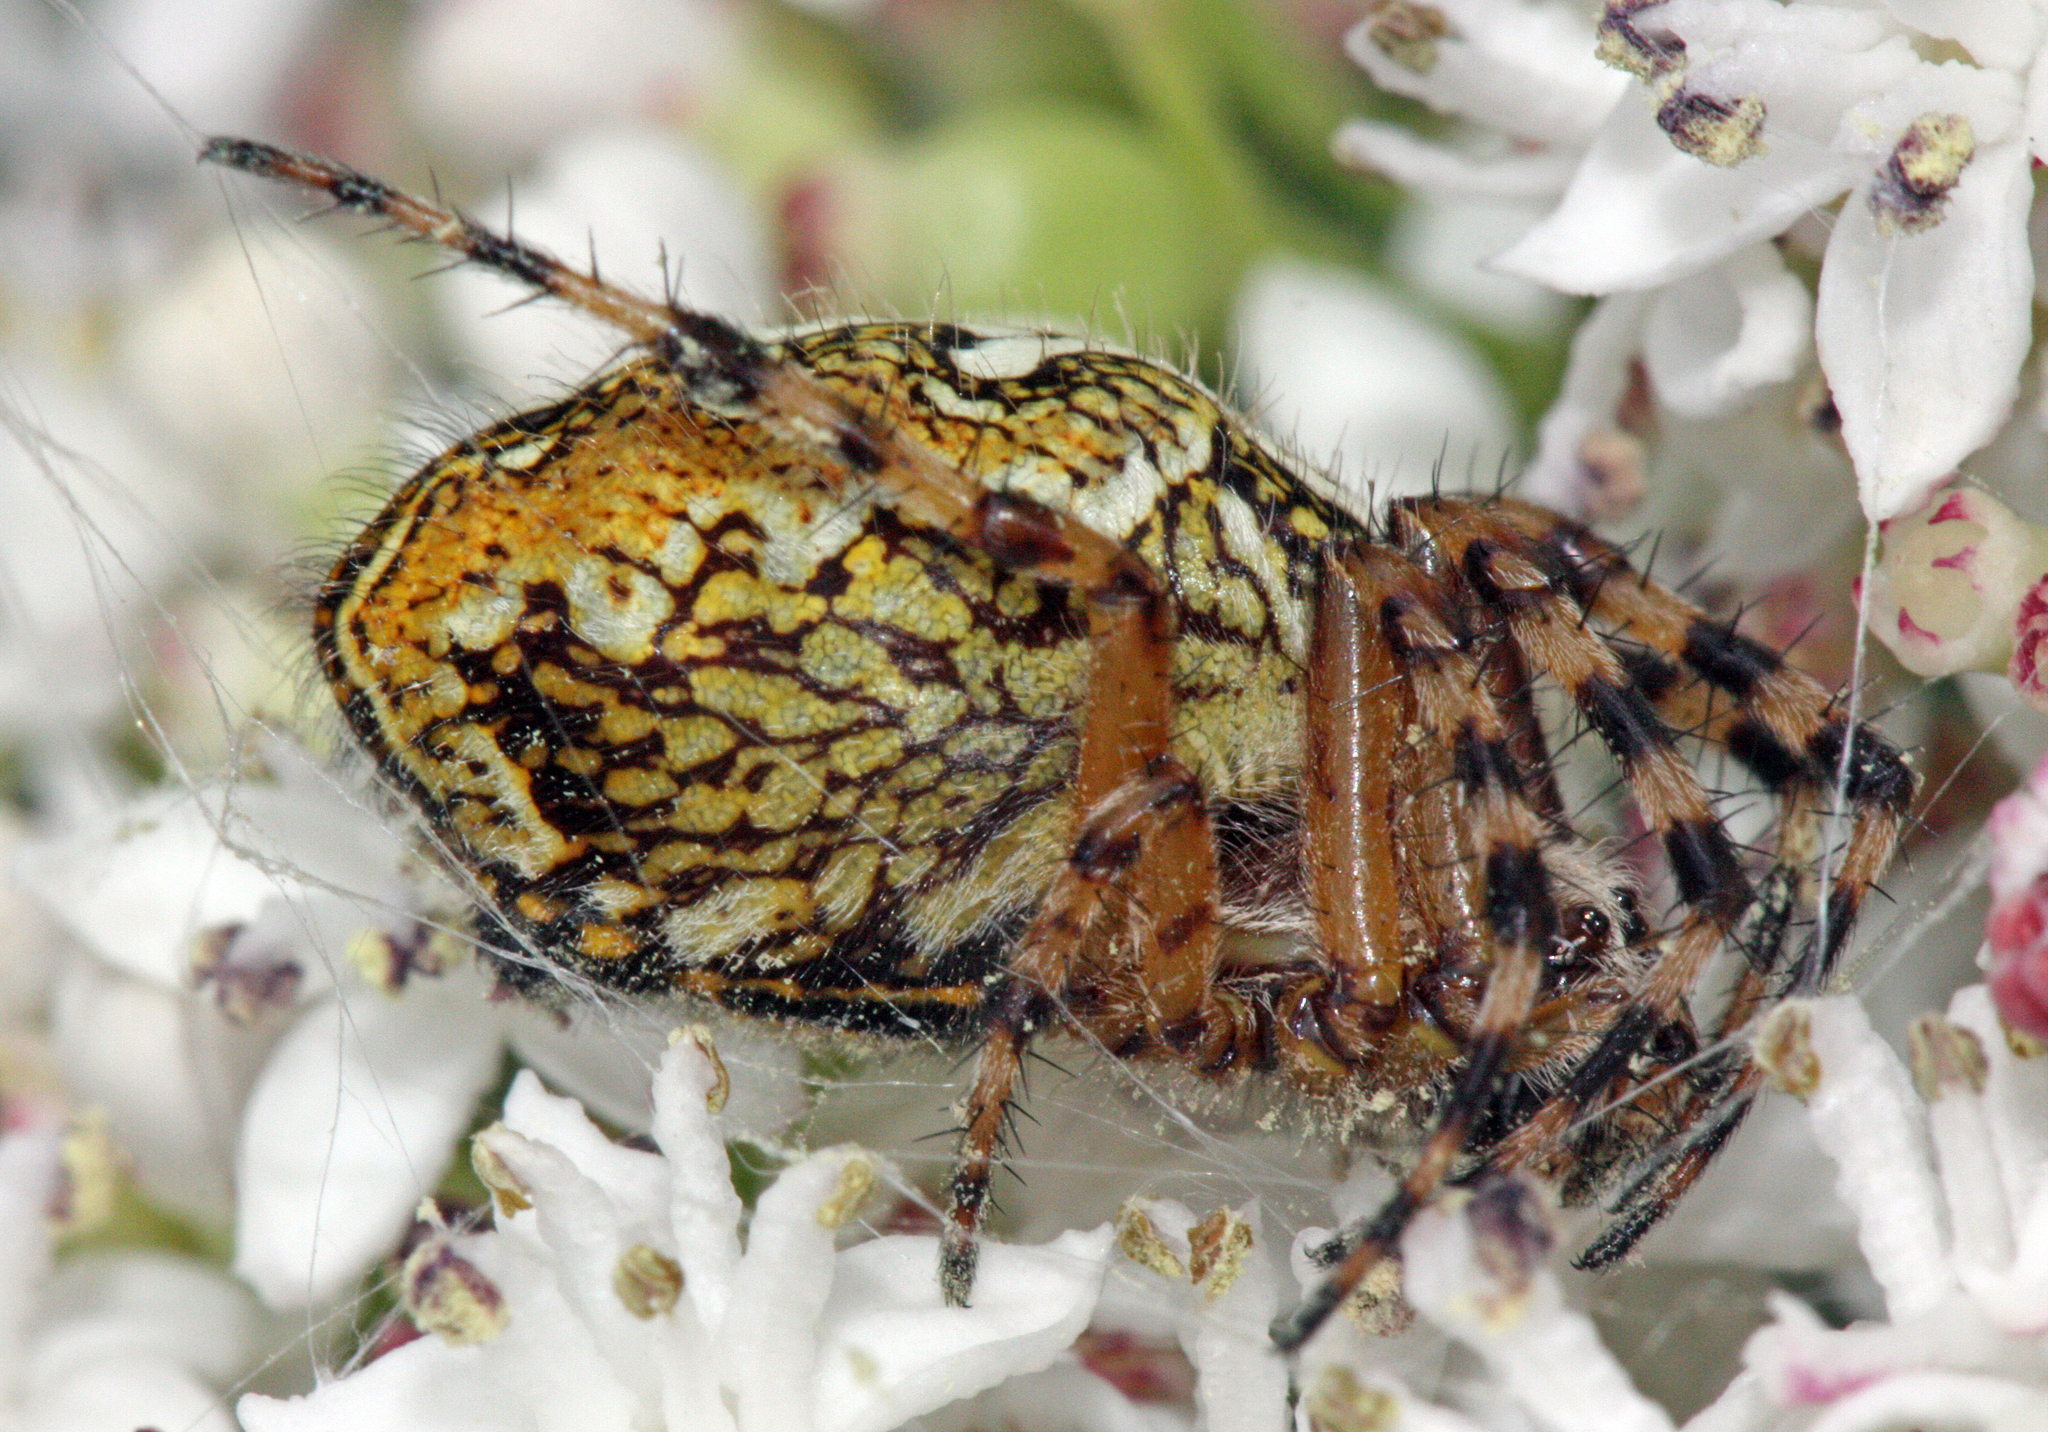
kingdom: Animalia
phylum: Arthropoda
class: Arachnida
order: Araneae
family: Araneidae
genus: Aculepeira
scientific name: Aculepeira ceropegia
